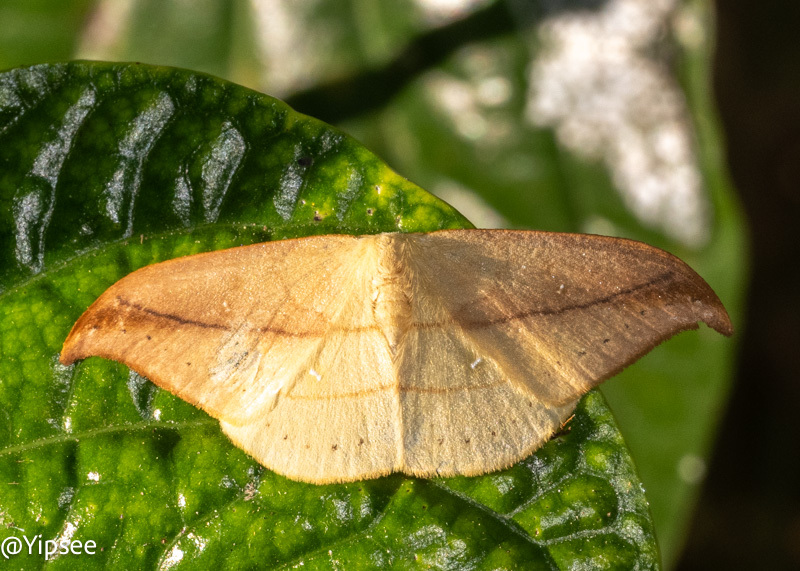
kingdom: Animalia
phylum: Arthropoda
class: Insecta
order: Lepidoptera
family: Drepanidae
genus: Tridrepana
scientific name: Tridrepana argentistriga
